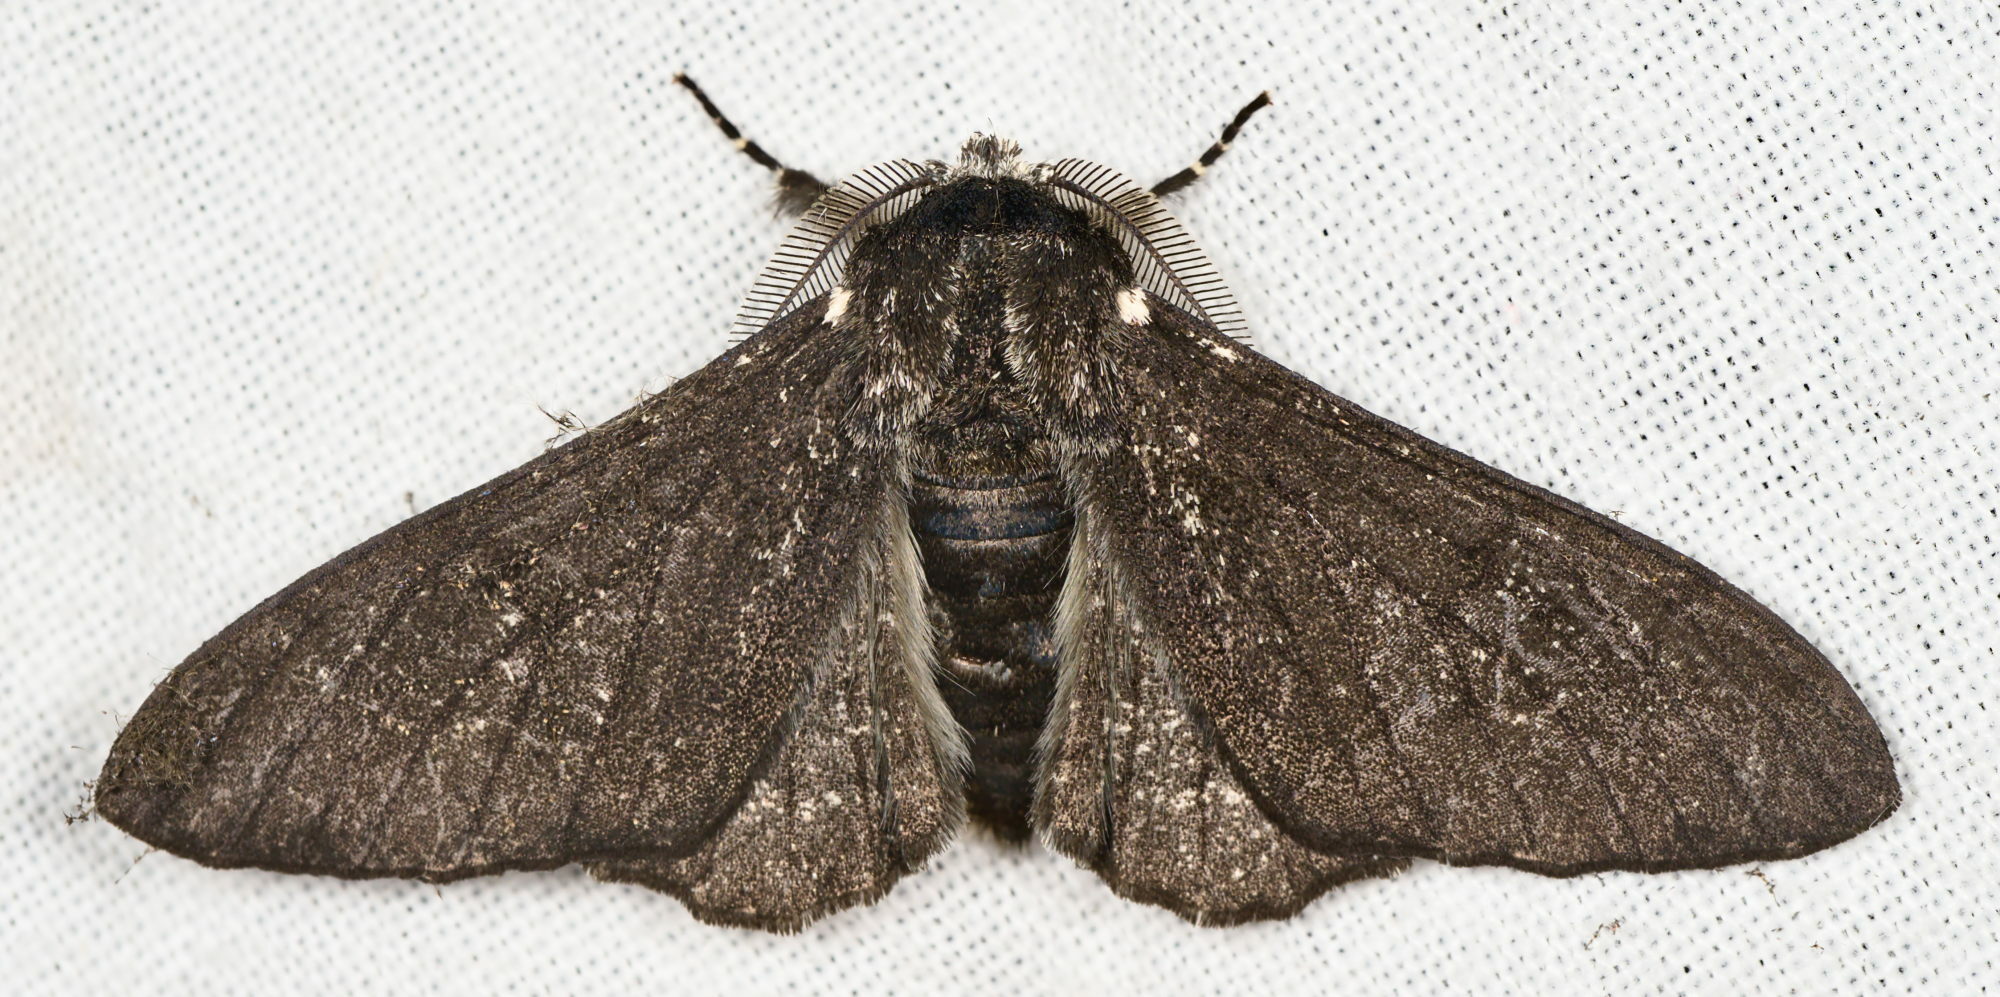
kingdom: Animalia
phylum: Arthropoda
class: Insecta
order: Lepidoptera
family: Geometridae
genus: Biston
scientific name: Biston betularia
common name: Peppered moth
